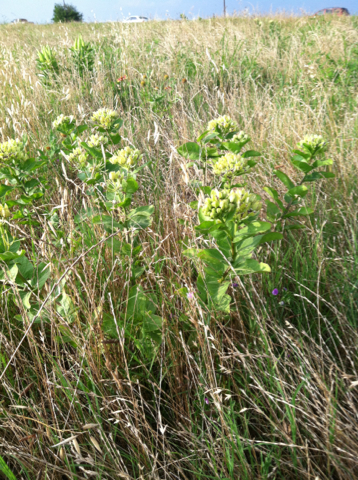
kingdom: Plantae
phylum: Tracheophyta
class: Magnoliopsida
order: Gentianales
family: Apocynaceae
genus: Asclepias
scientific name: Asclepias viridis
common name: Antelope-horns
